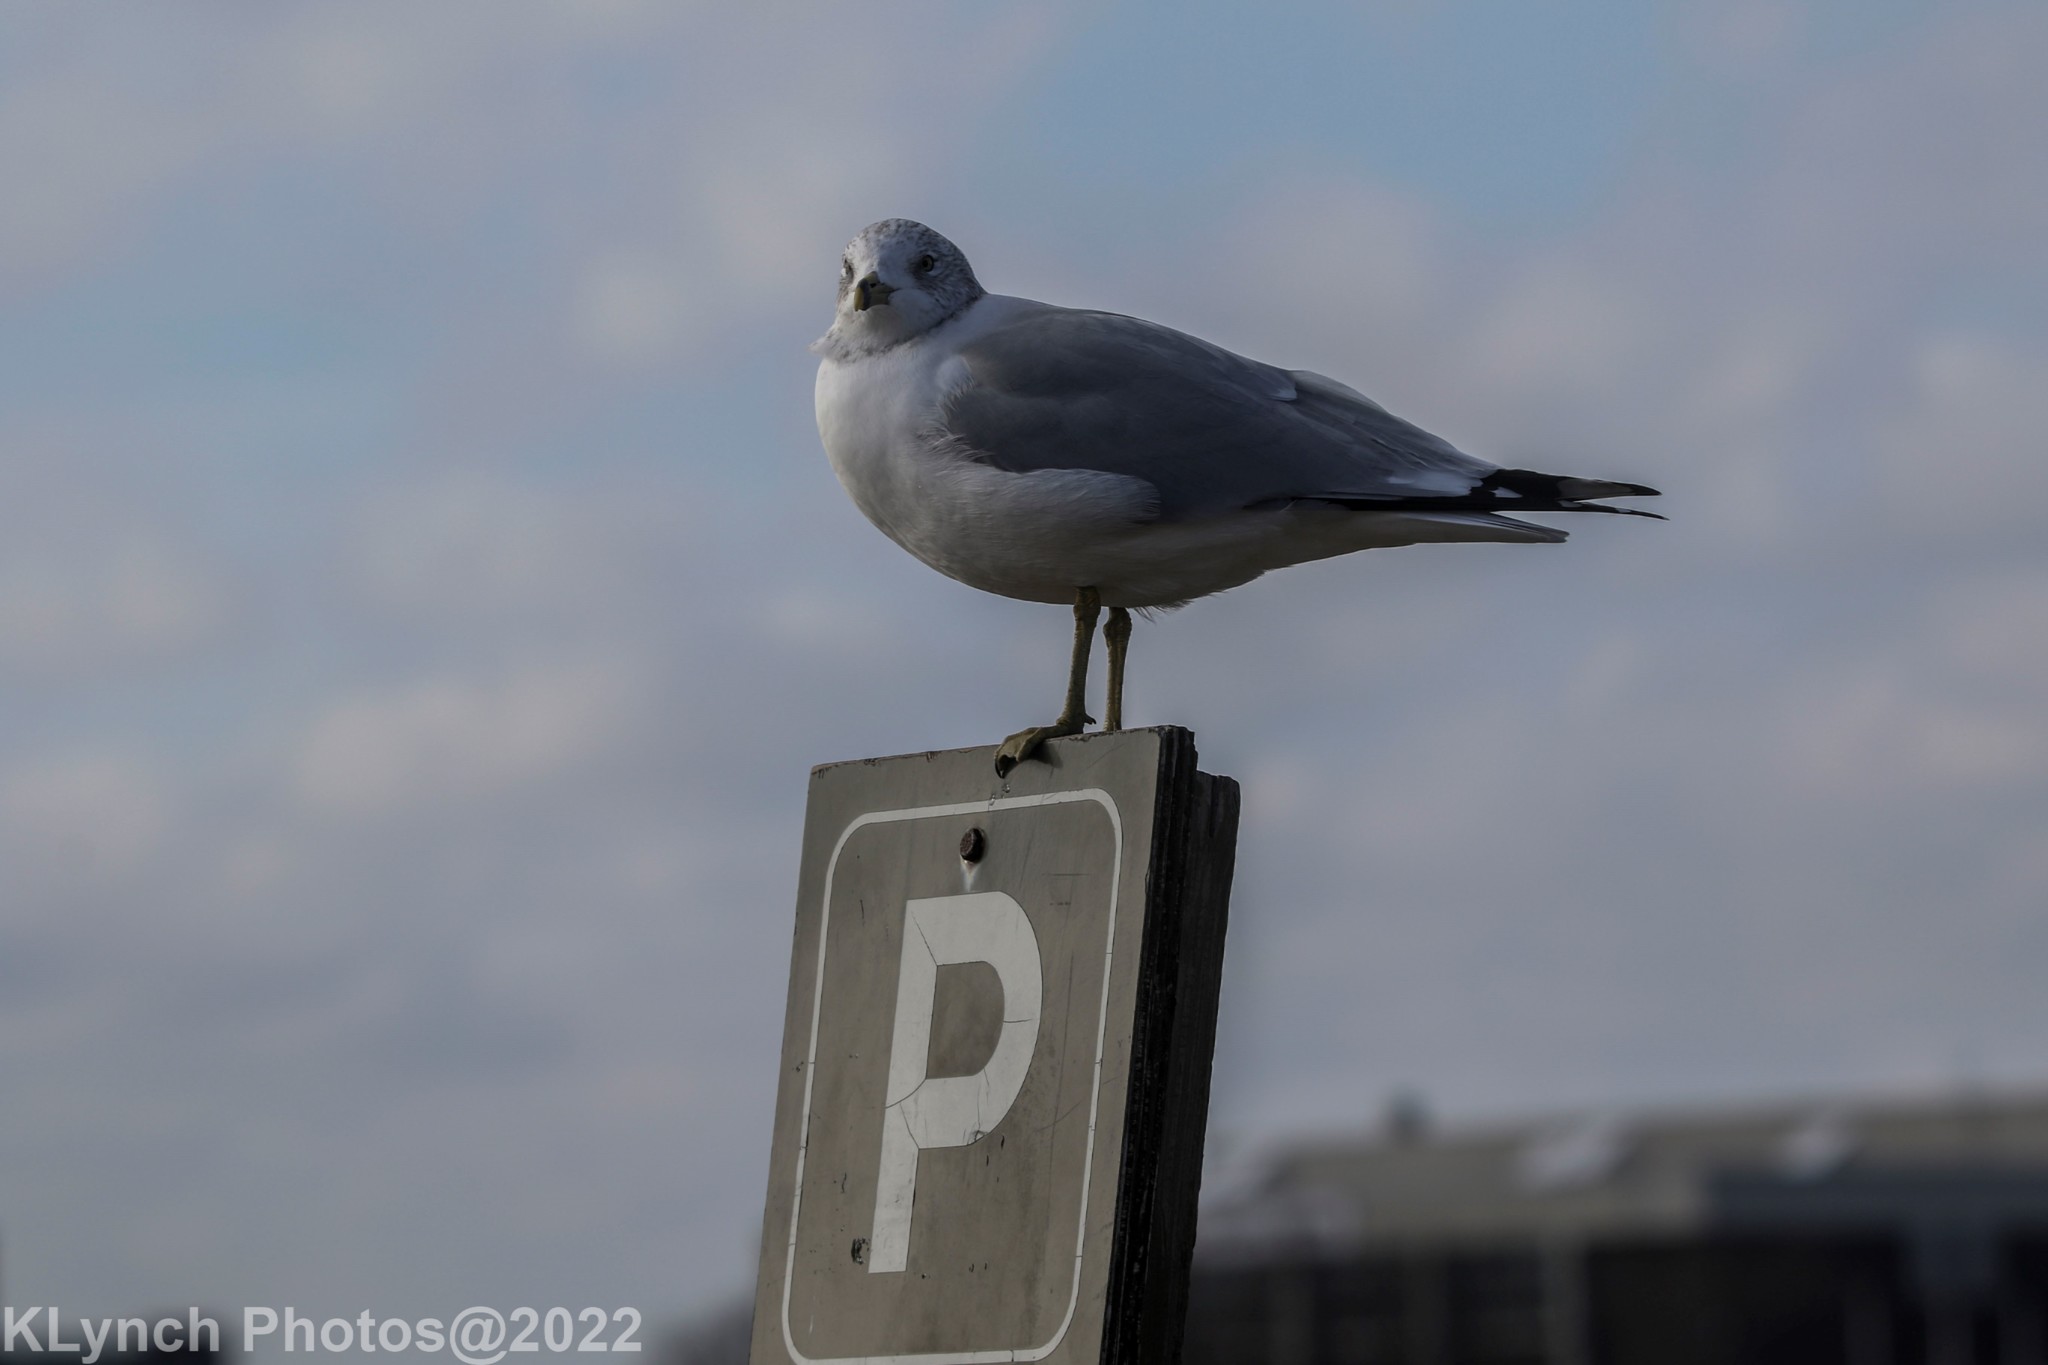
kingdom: Animalia
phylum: Chordata
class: Aves
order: Charadriiformes
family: Laridae
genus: Larus
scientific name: Larus delawarensis
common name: Ring-billed gull
